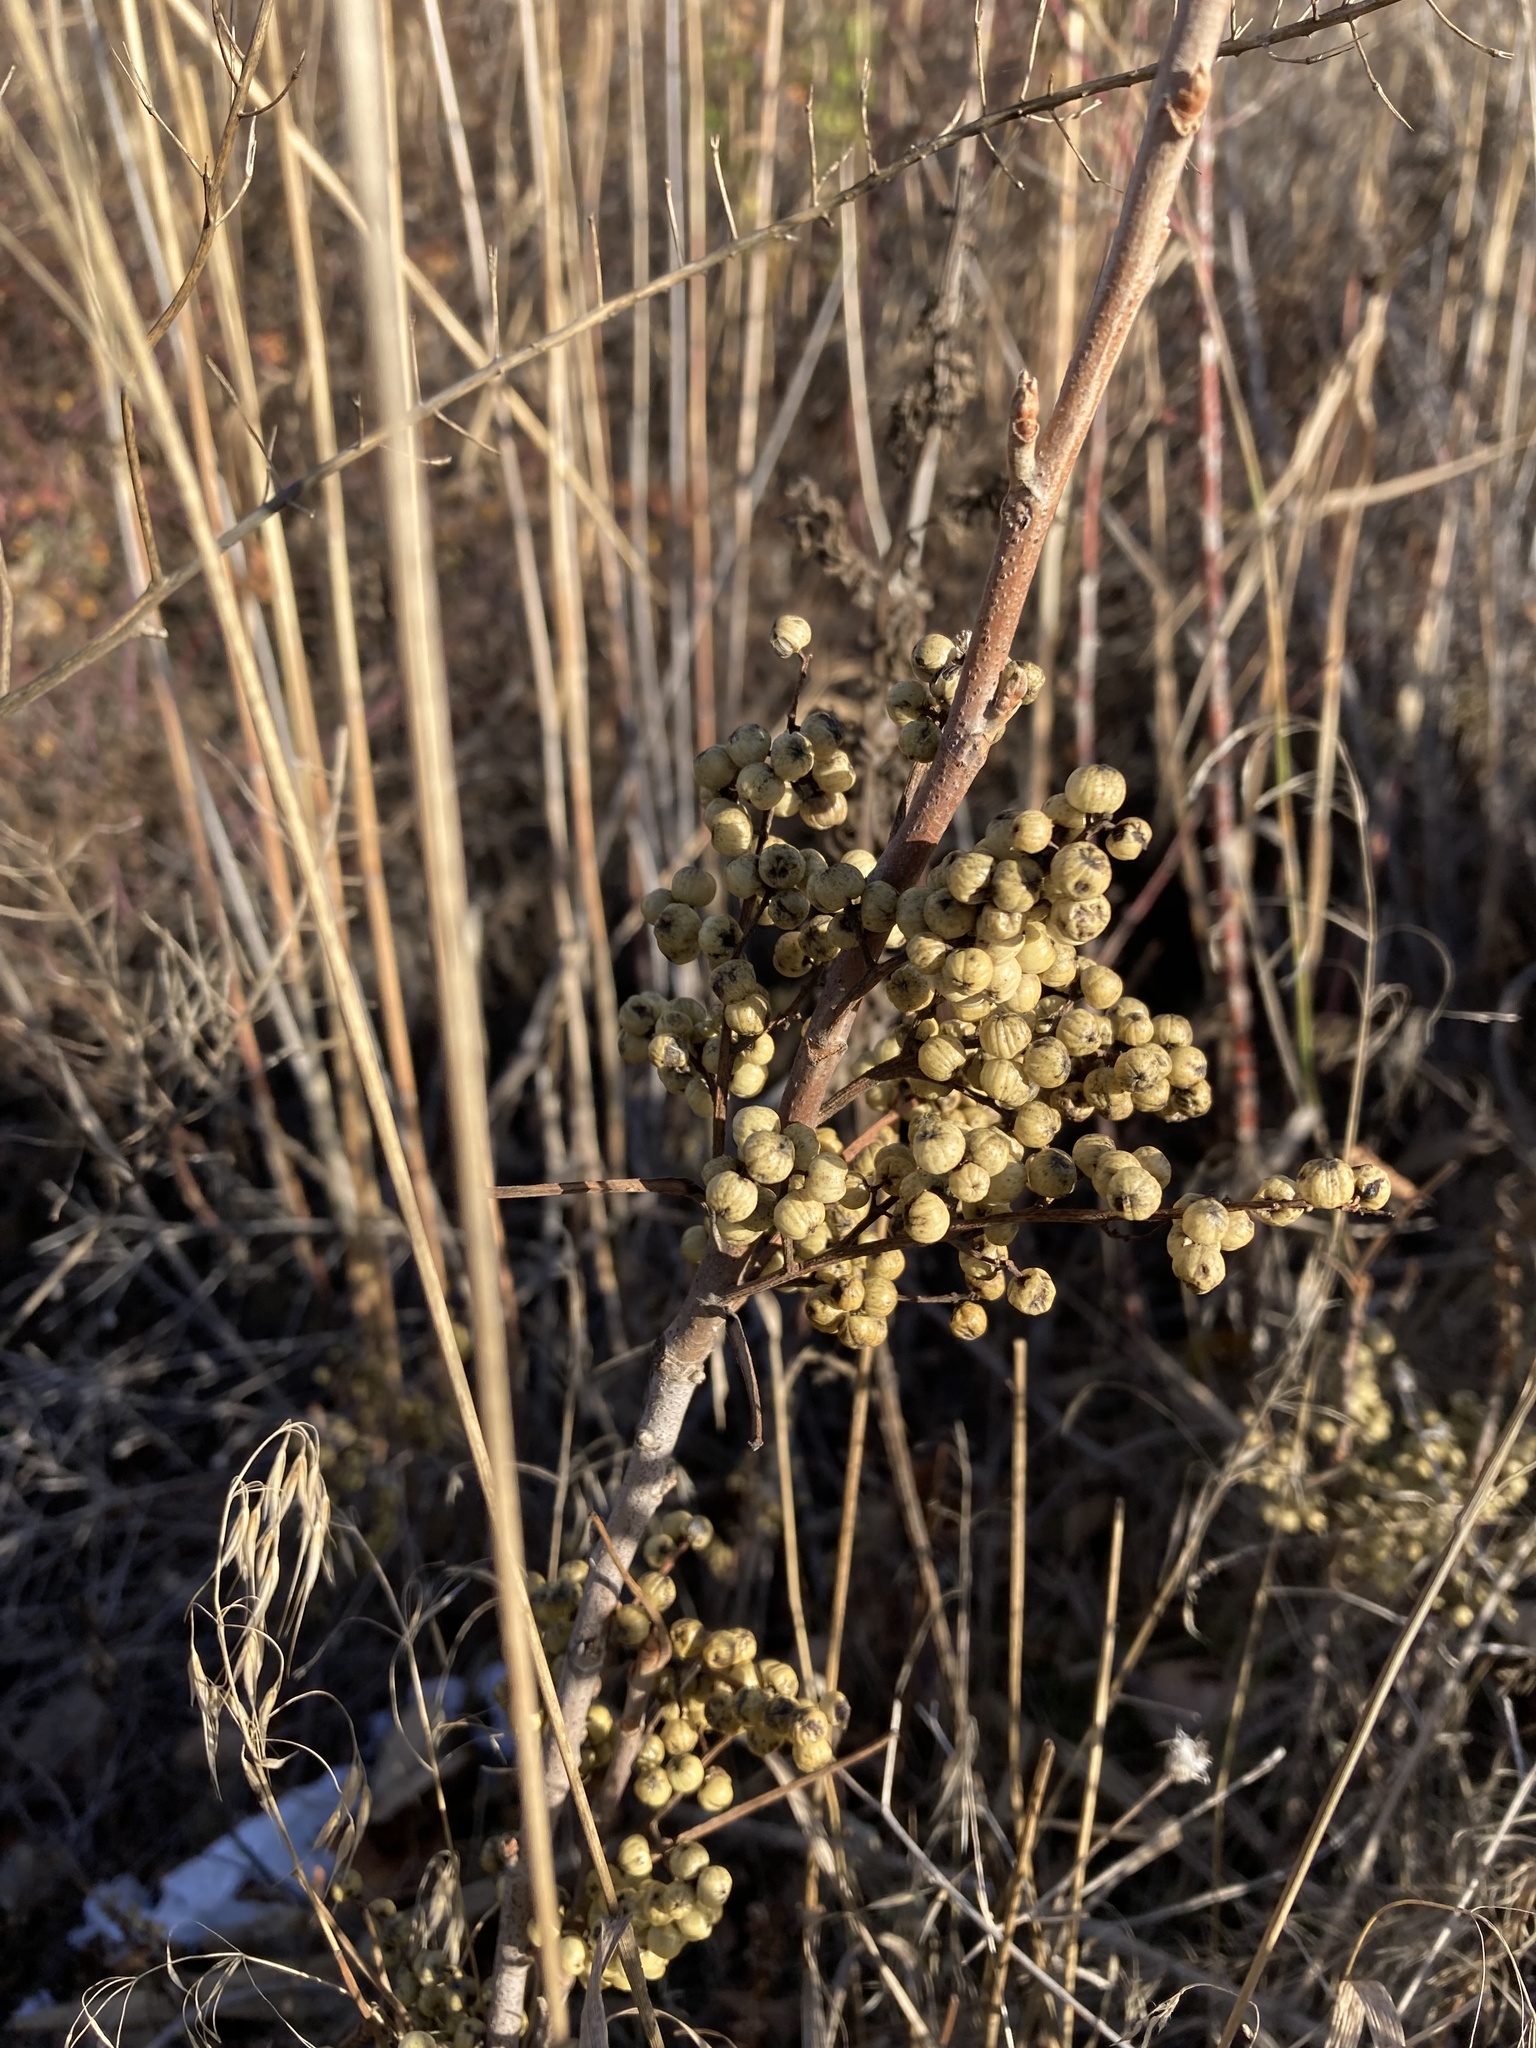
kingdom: Plantae
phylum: Tracheophyta
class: Magnoliopsida
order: Sapindales
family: Anacardiaceae
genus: Toxicodendron
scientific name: Toxicodendron rydbergii
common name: Rydberg's poison-ivy
